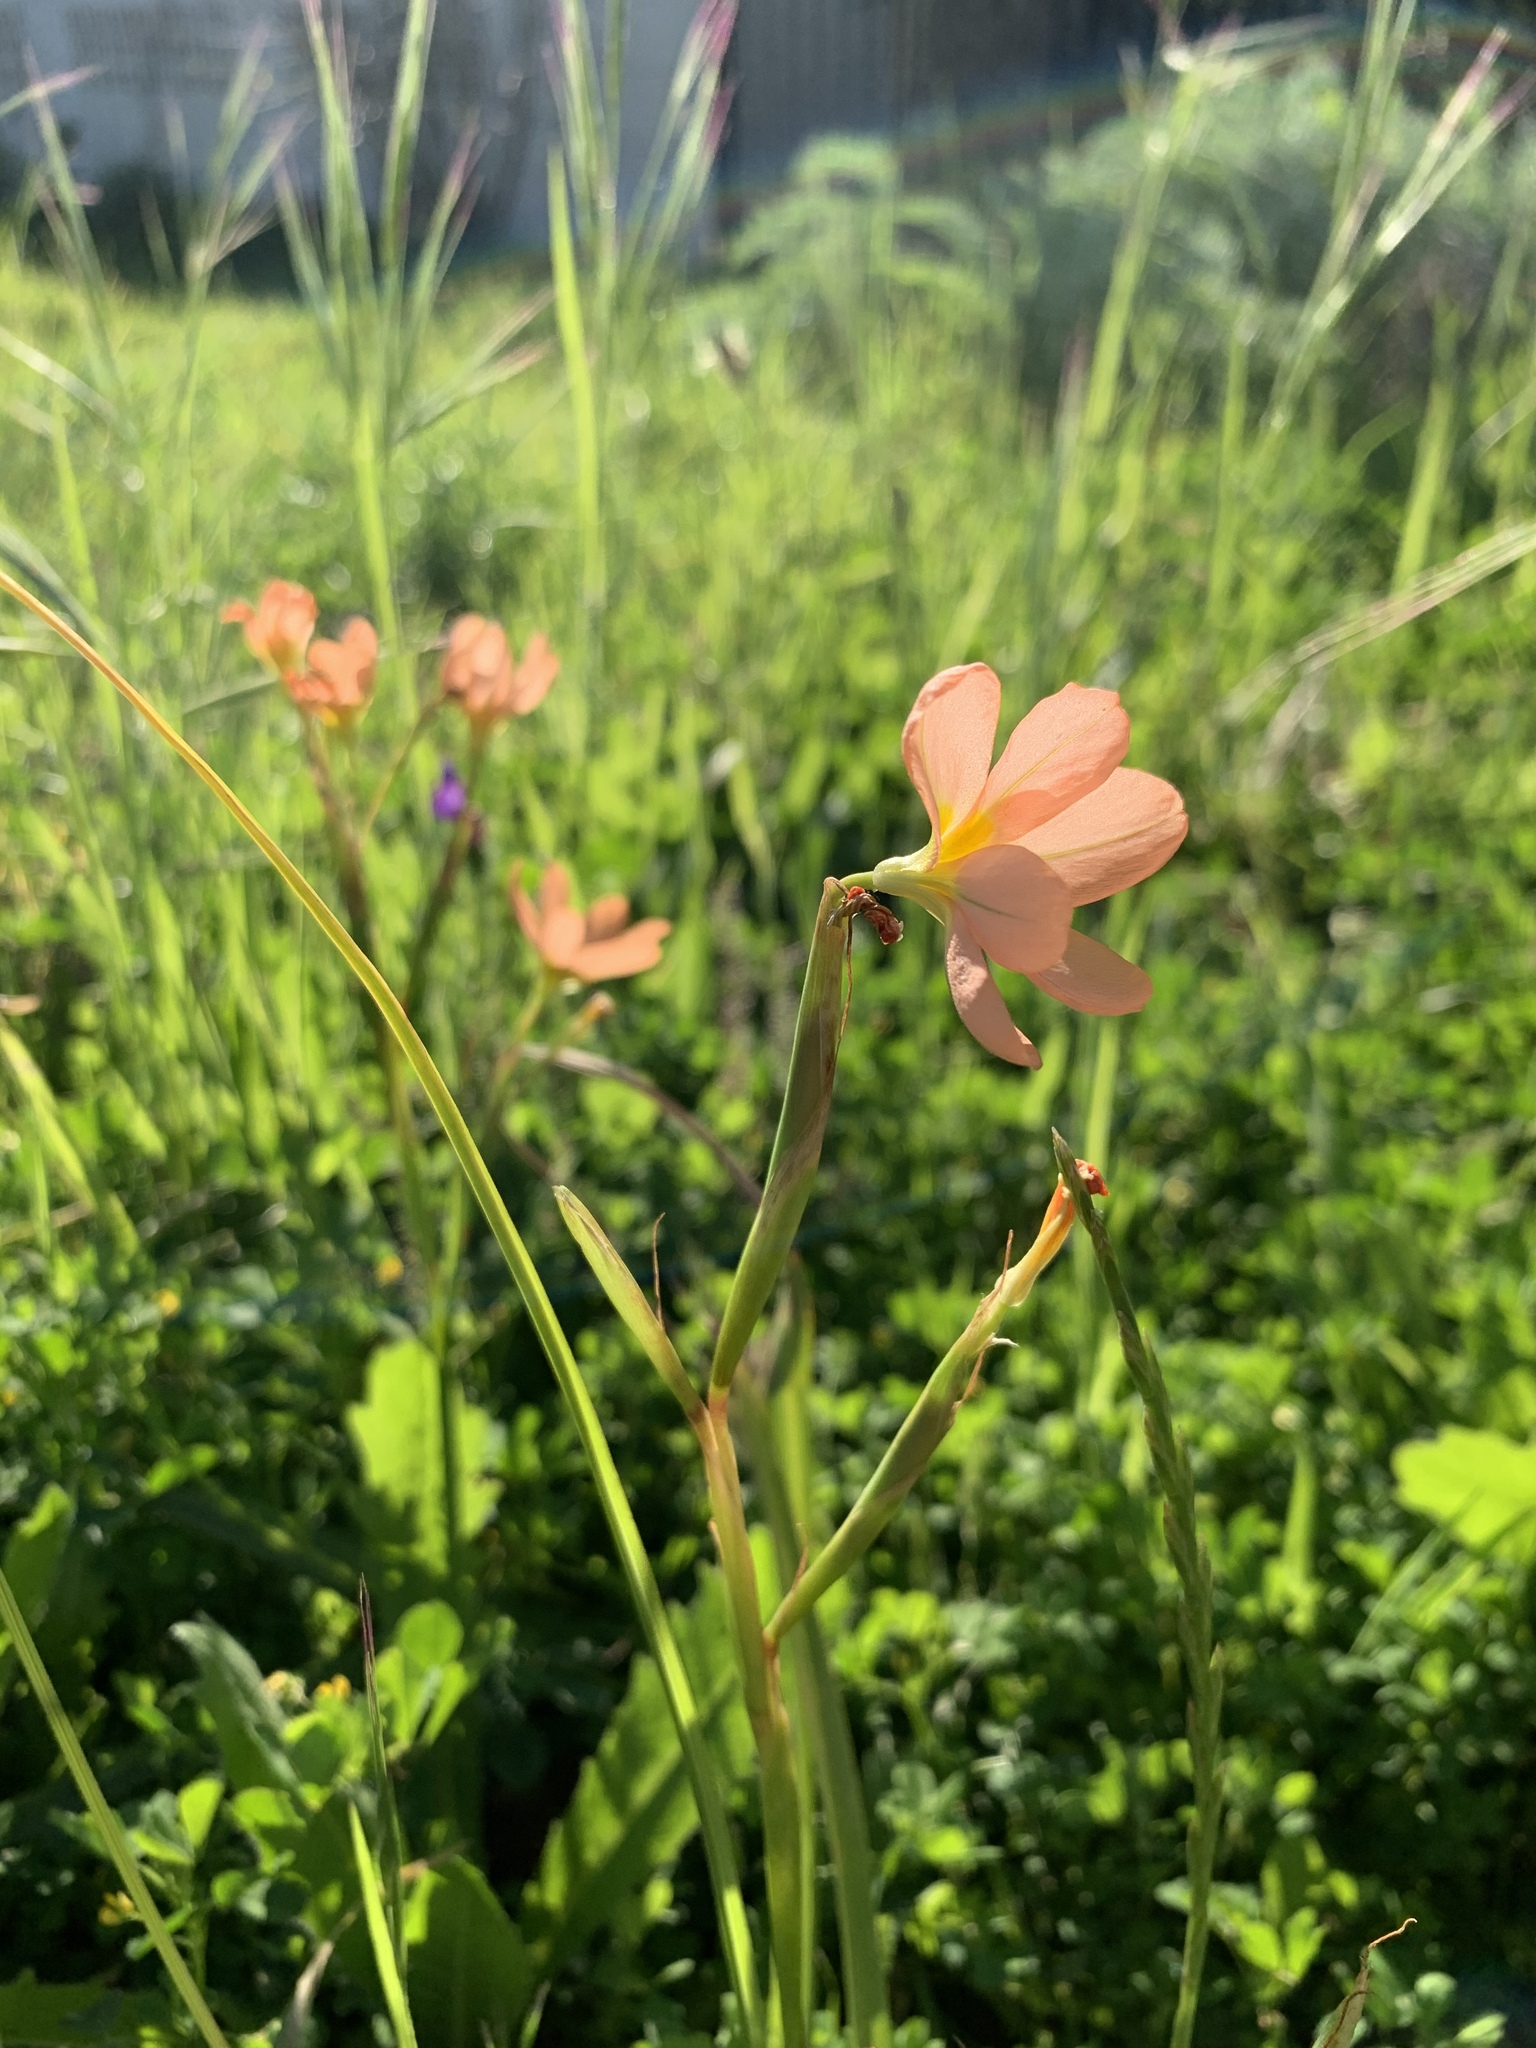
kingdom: Plantae
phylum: Tracheophyta
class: Liliopsida
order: Asparagales
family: Iridaceae
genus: Moraea
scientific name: Moraea miniata
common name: Two-leaf cape-tulip
